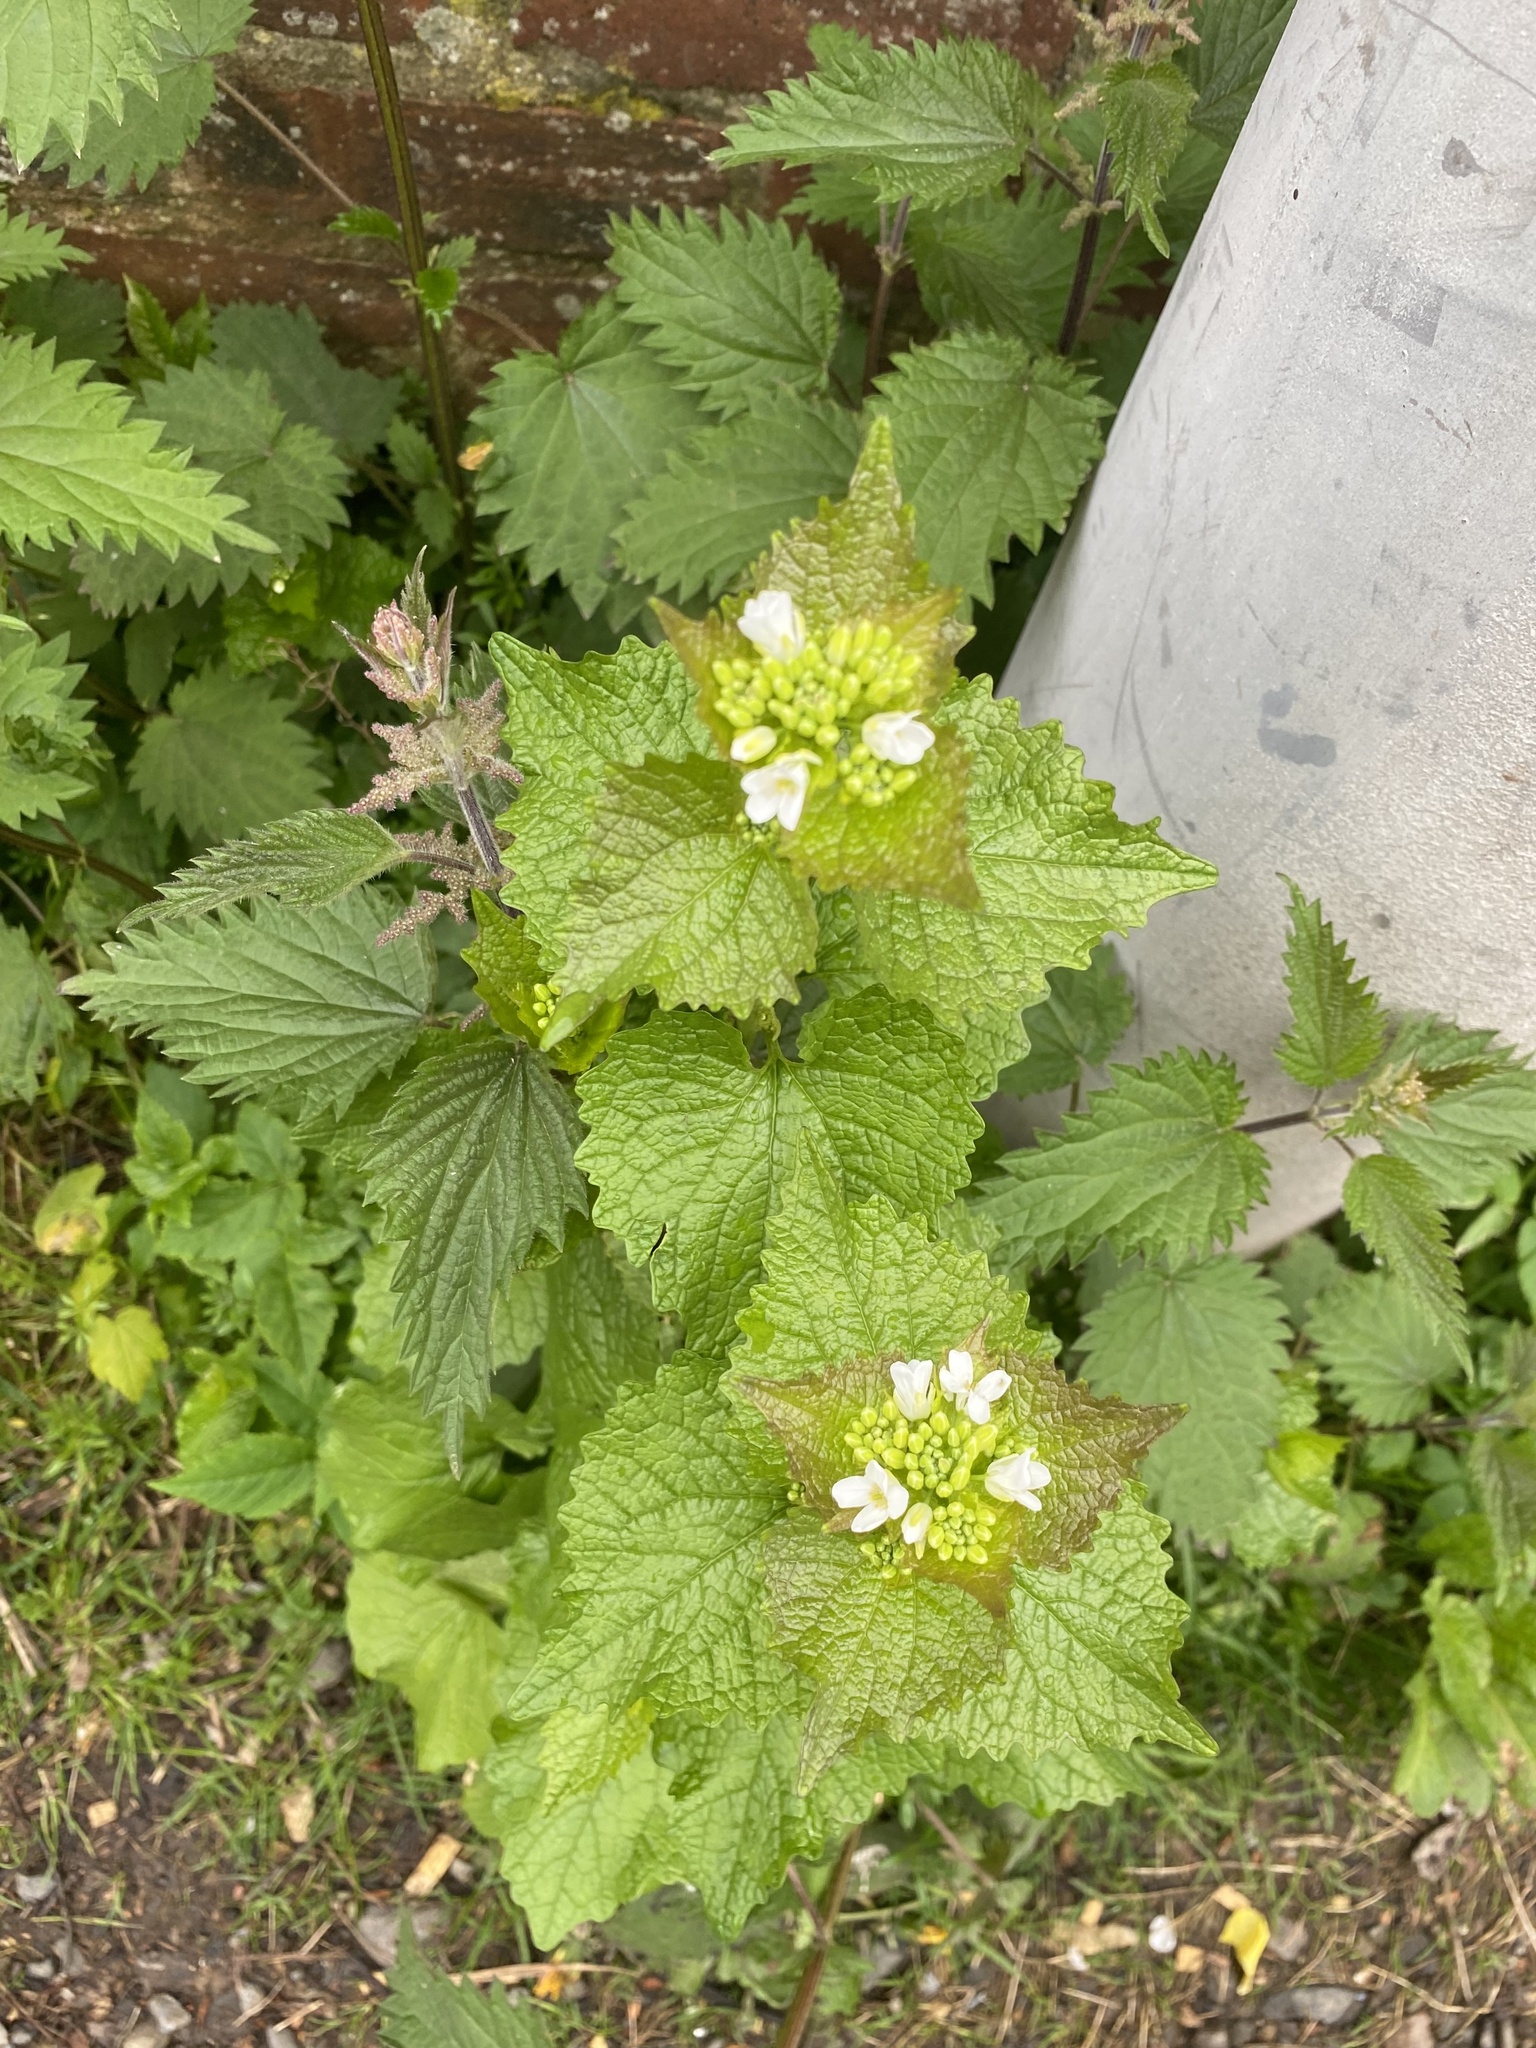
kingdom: Plantae
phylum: Tracheophyta
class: Magnoliopsida
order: Brassicales
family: Brassicaceae
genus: Alliaria
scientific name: Alliaria petiolata
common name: Garlic mustard
